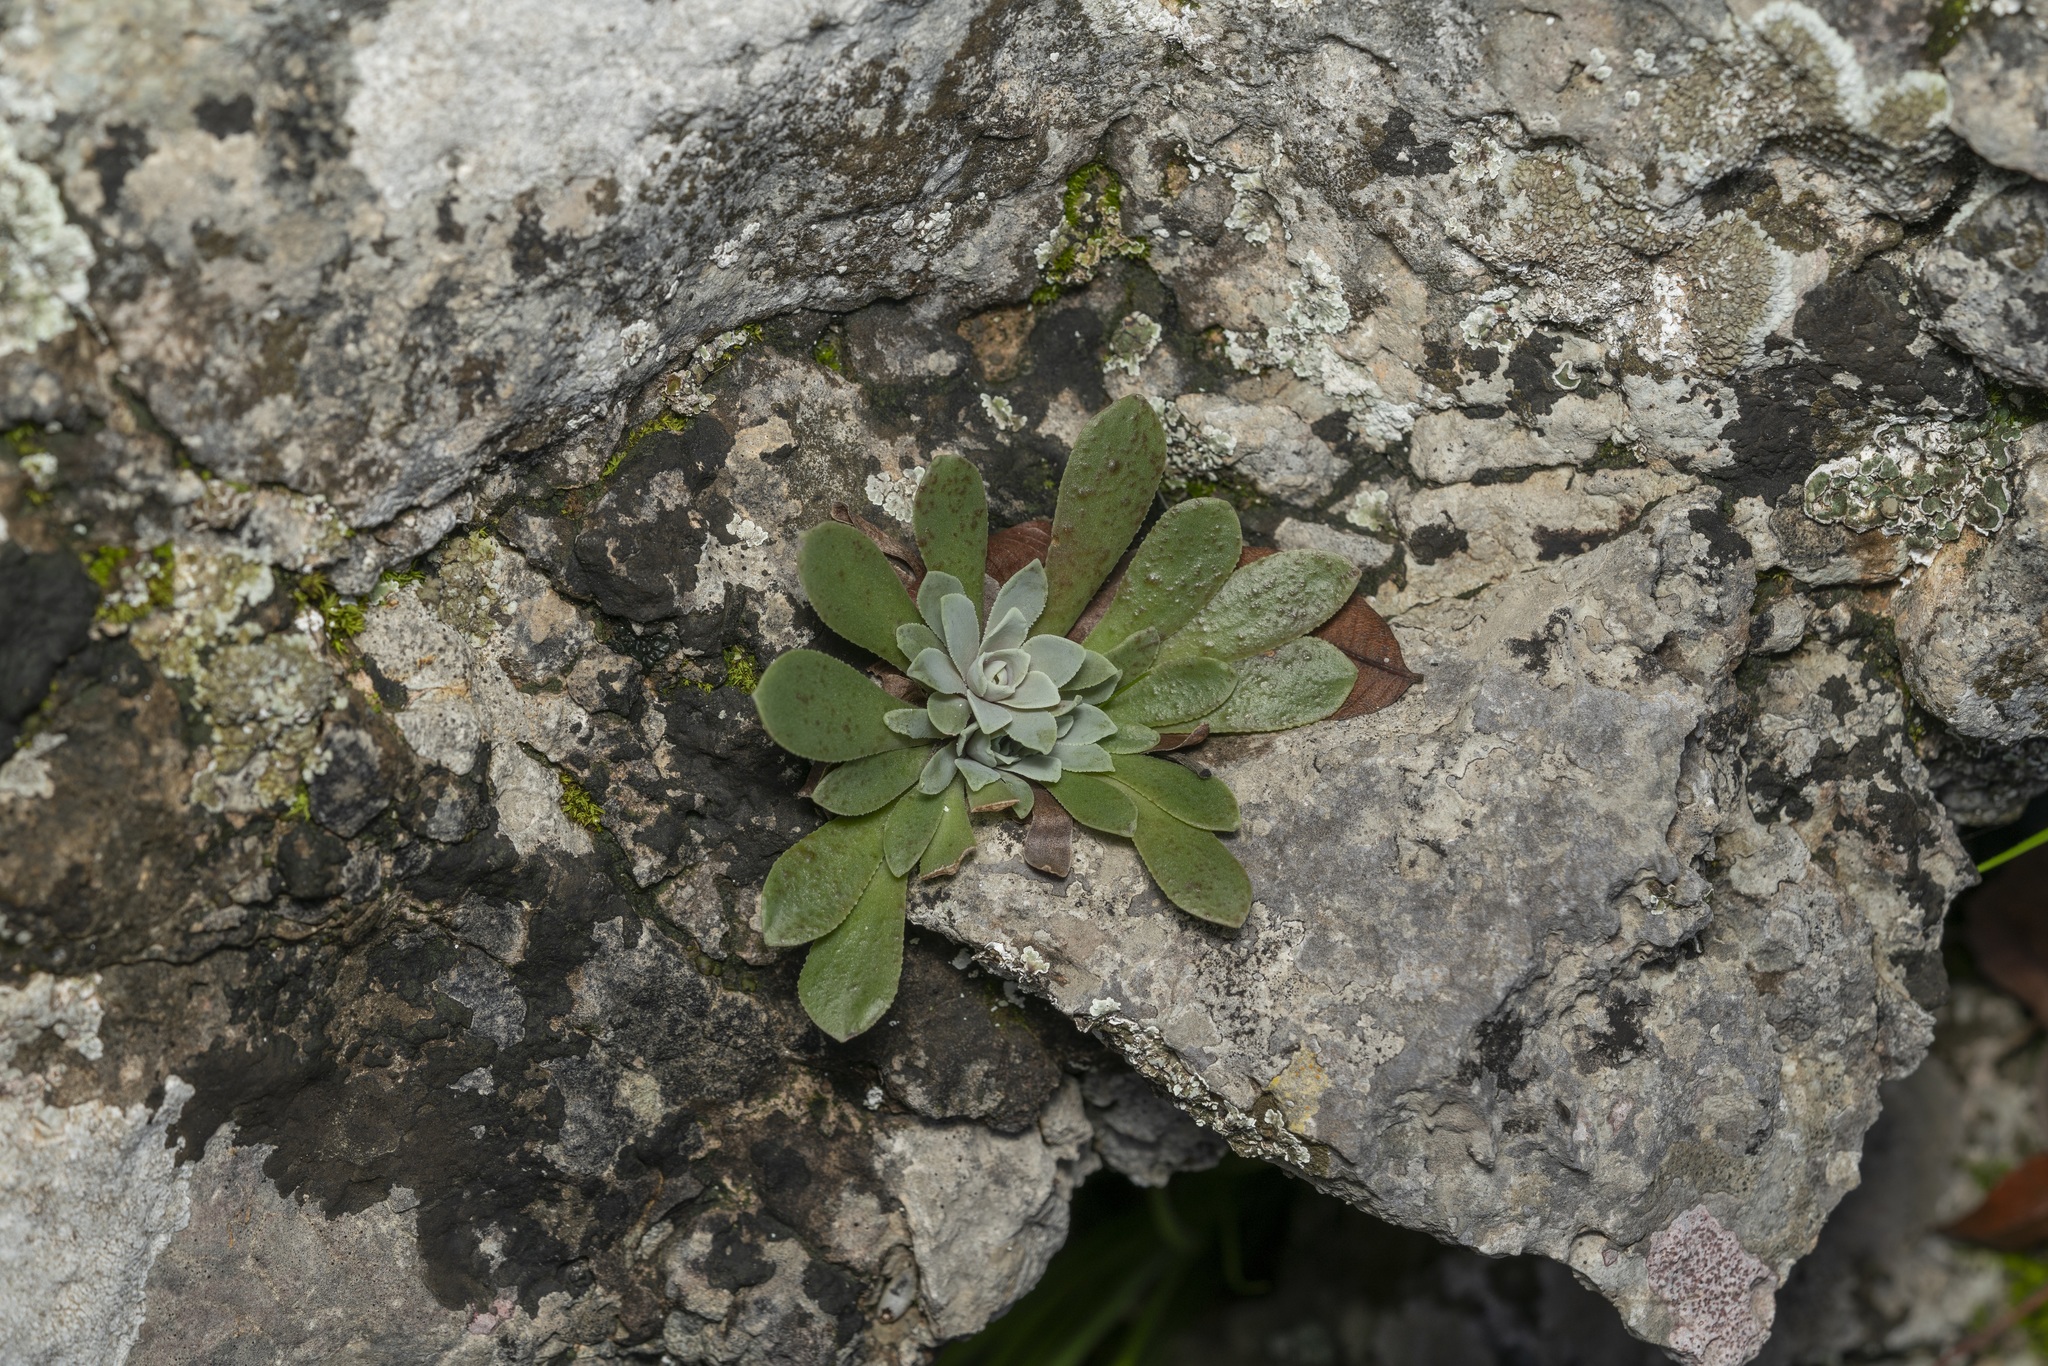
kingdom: Plantae
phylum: Tracheophyta
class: Magnoliopsida
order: Saxifragales
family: Crassulaceae
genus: Rosularia
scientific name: Rosularia serrata
